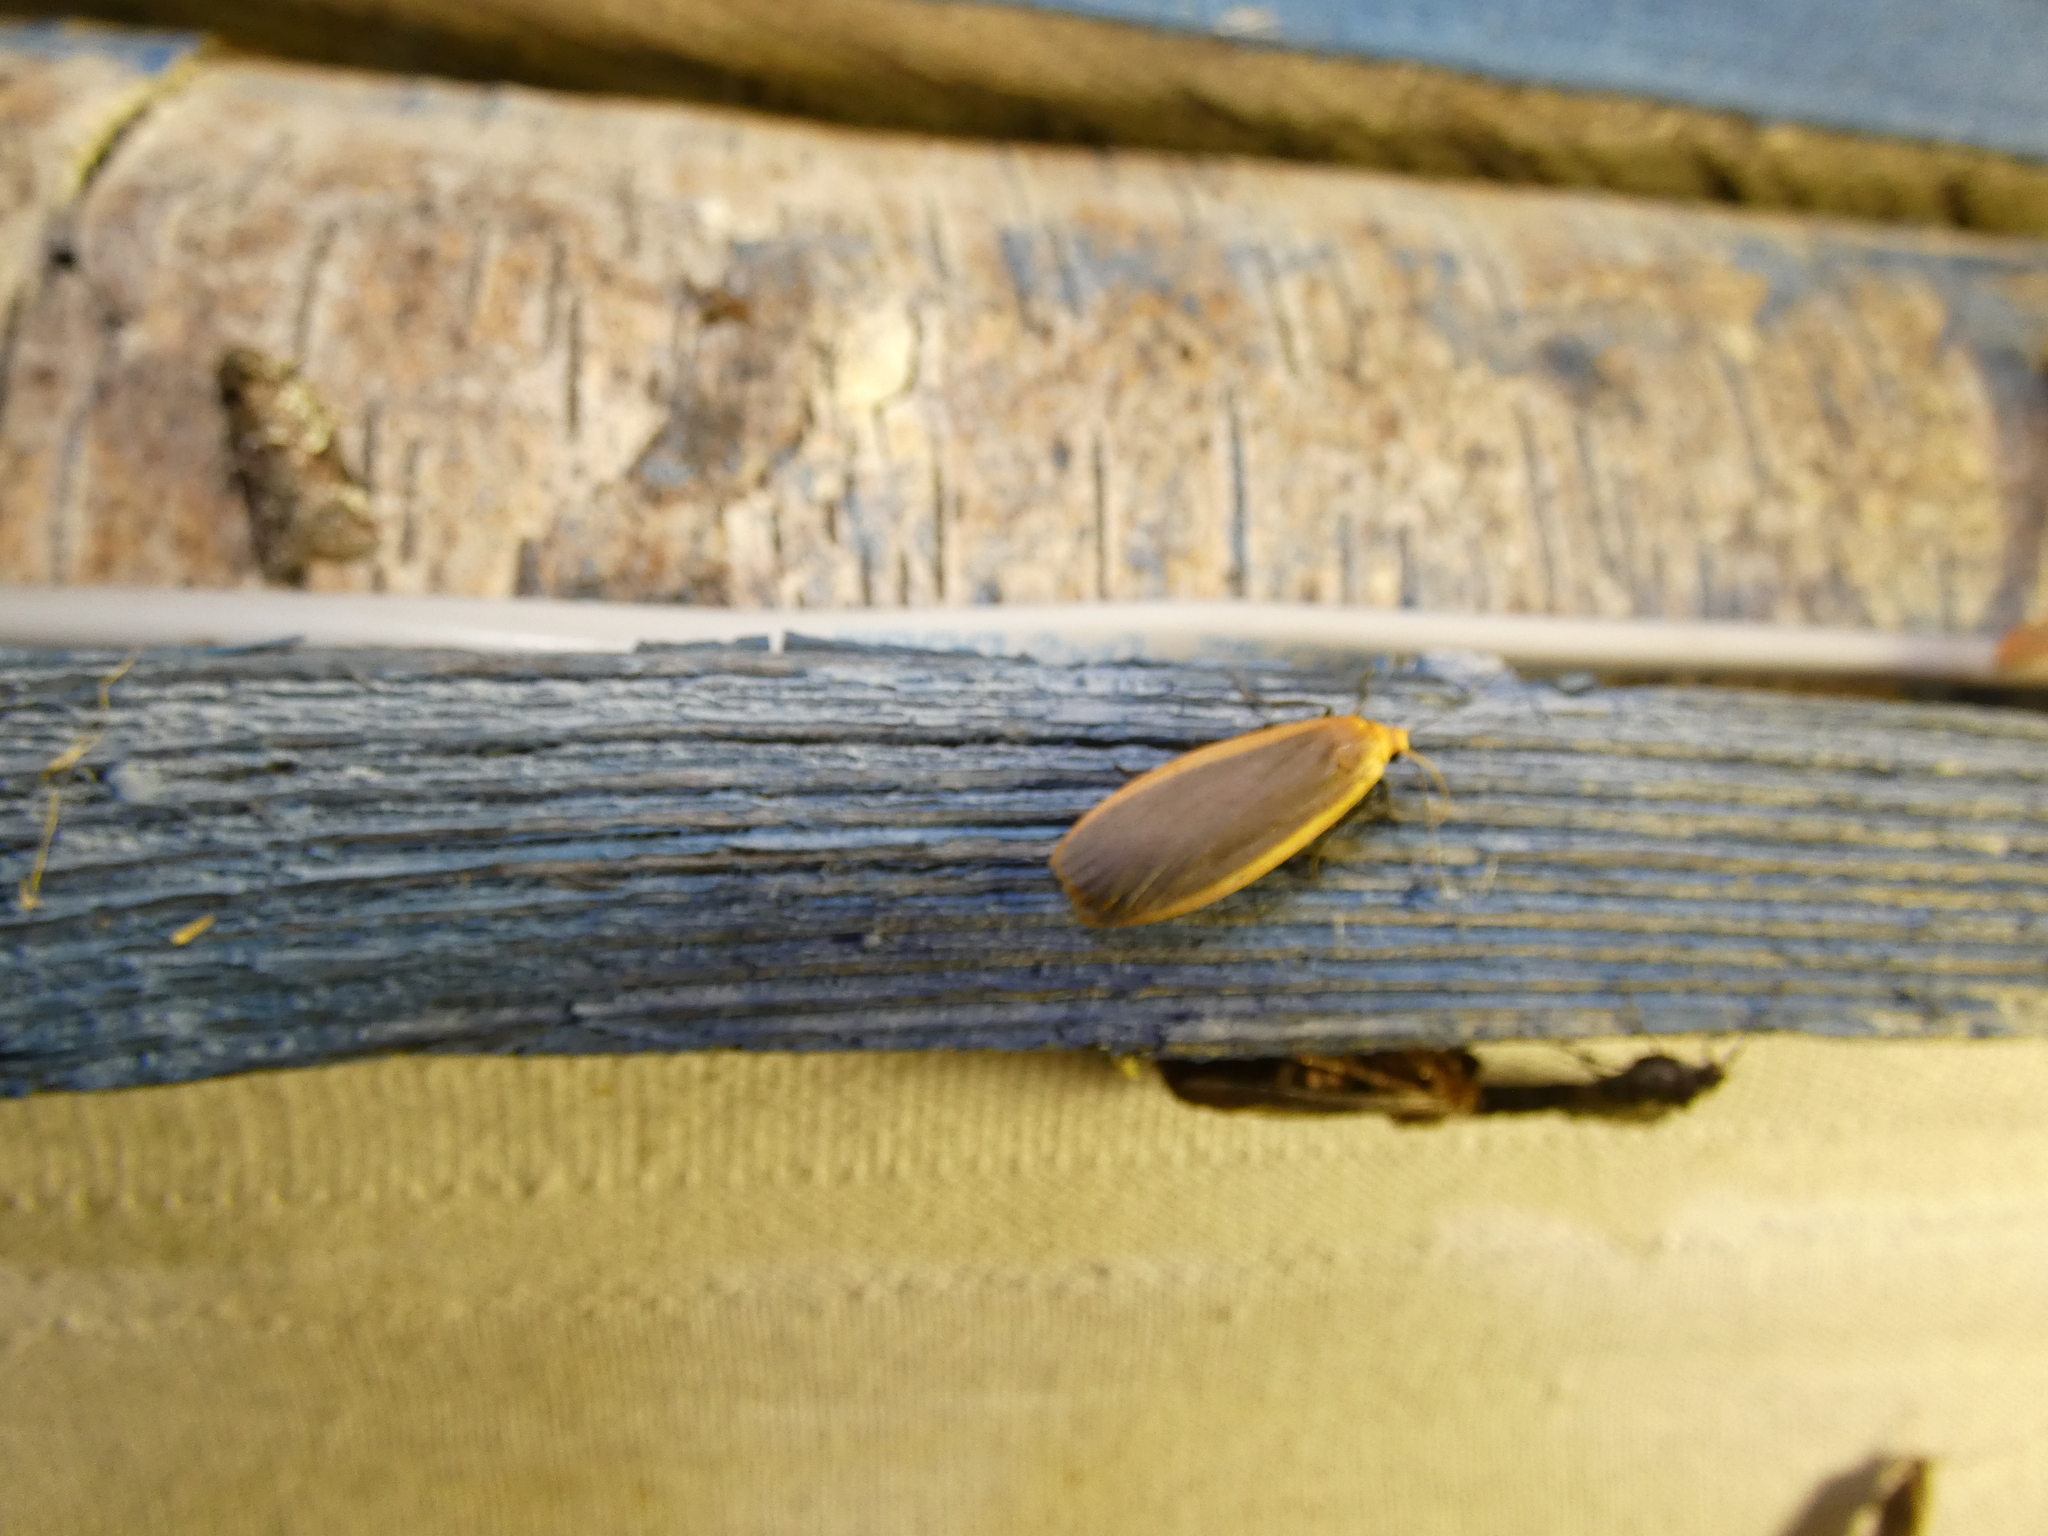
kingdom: Animalia
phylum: Arthropoda
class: Insecta
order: Lepidoptera
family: Erebidae
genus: Katha
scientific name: Katha depressa
